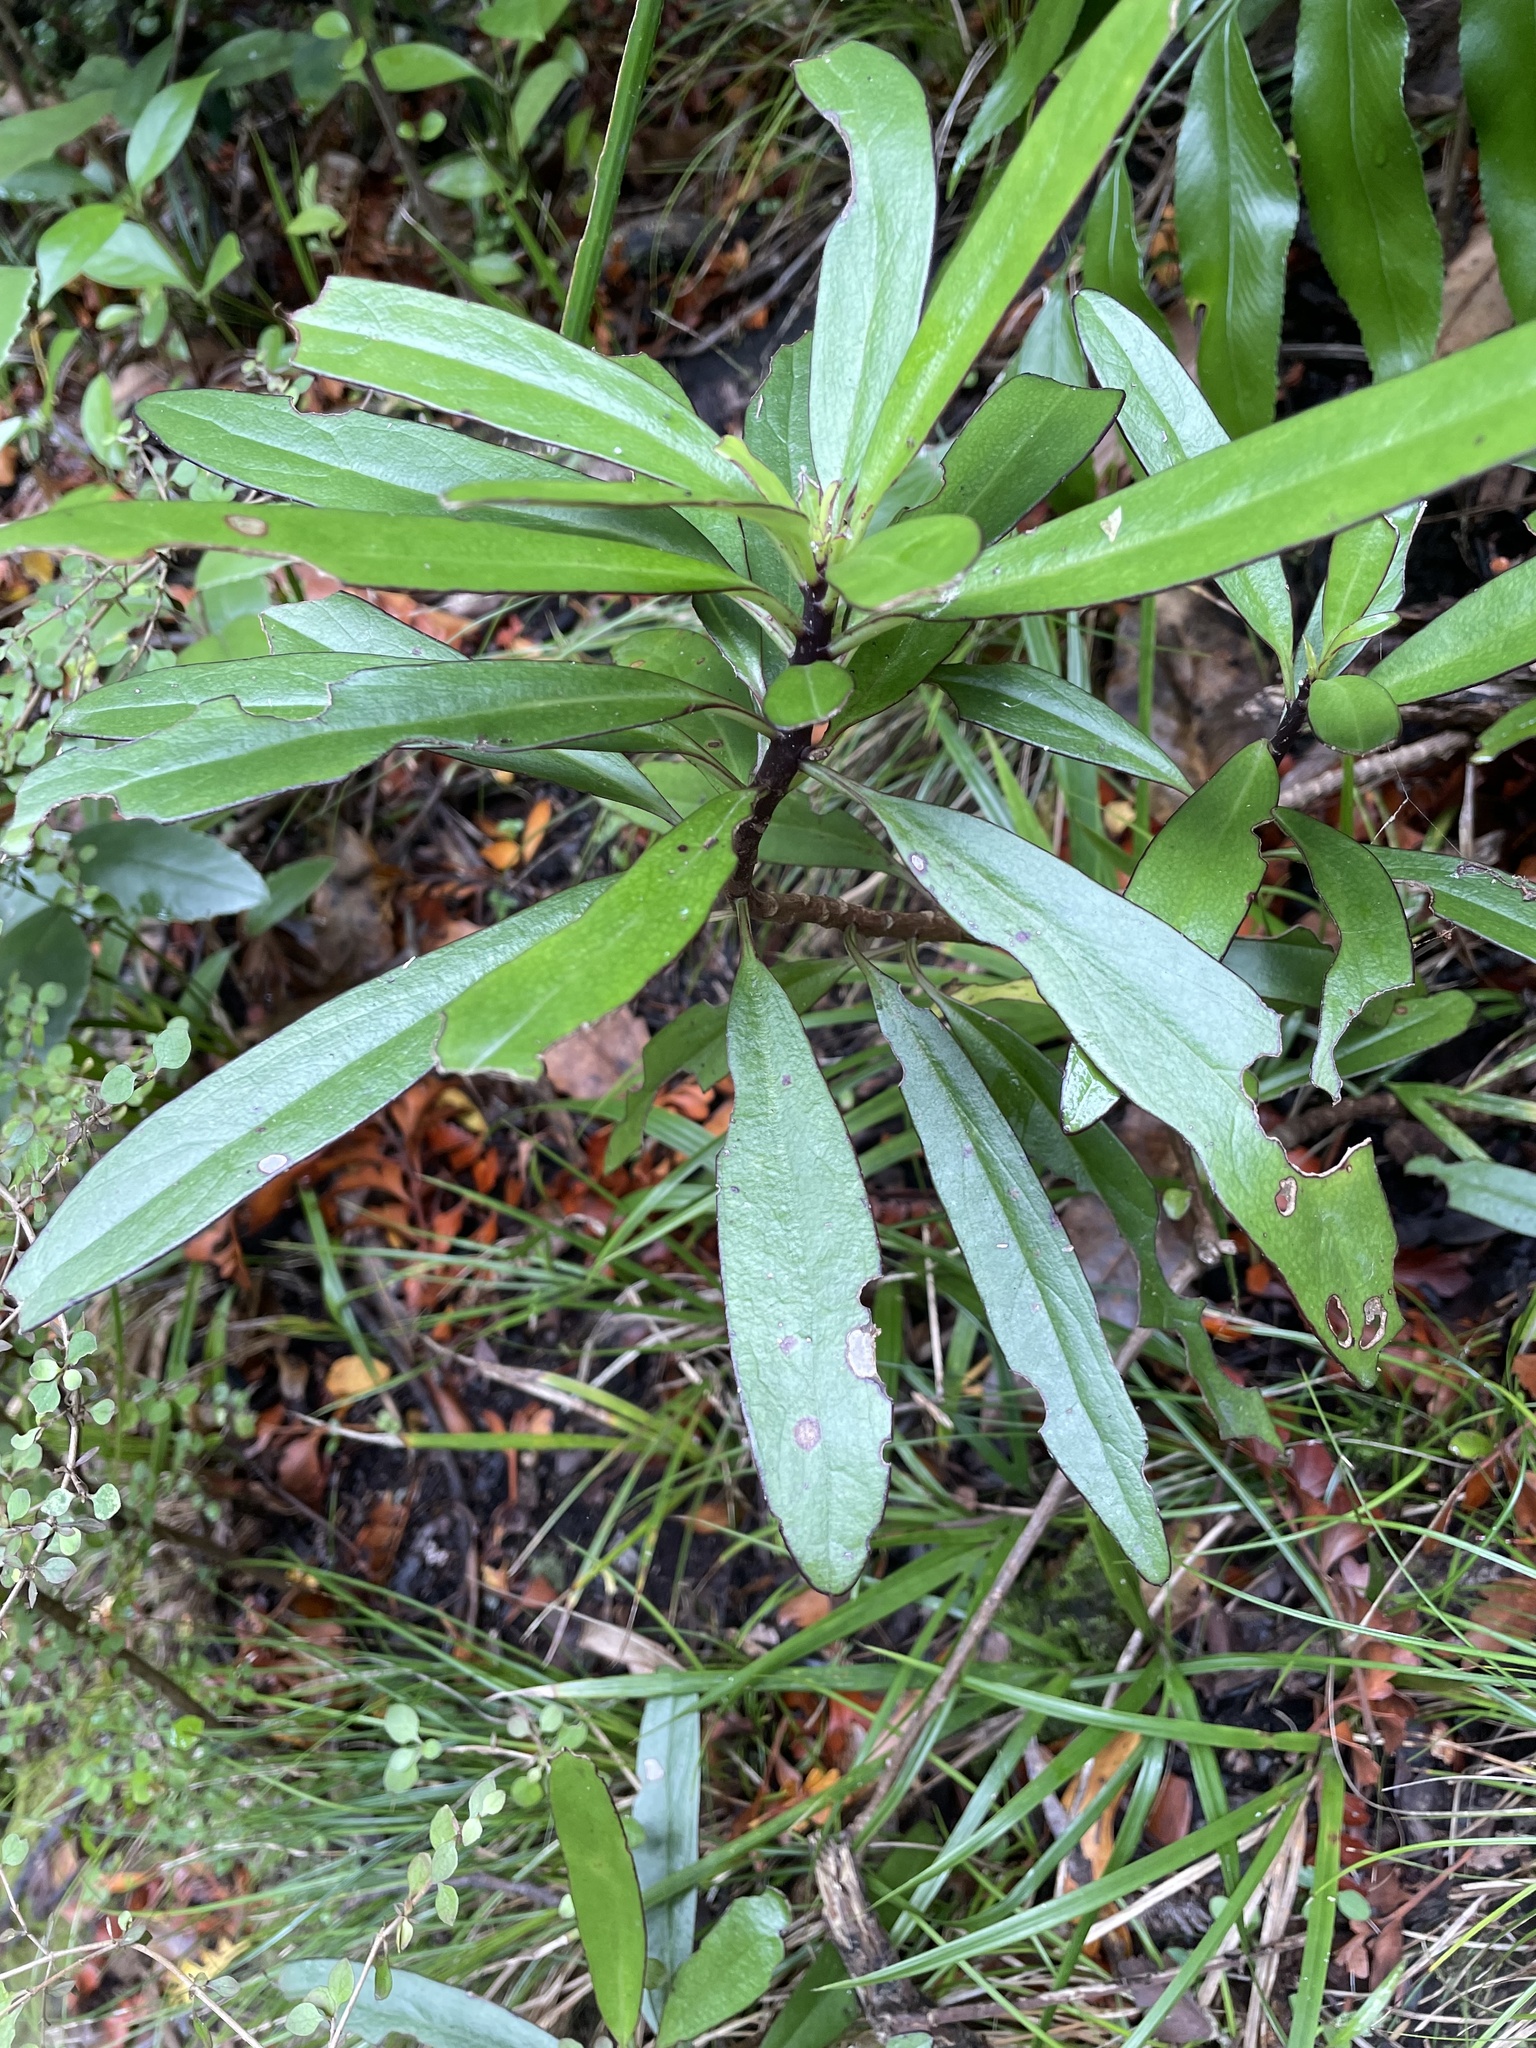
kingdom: Plantae
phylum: Tracheophyta
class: Magnoliopsida
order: Asterales
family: Asteraceae
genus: Brachyglottis
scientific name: Brachyglottis kirkii
